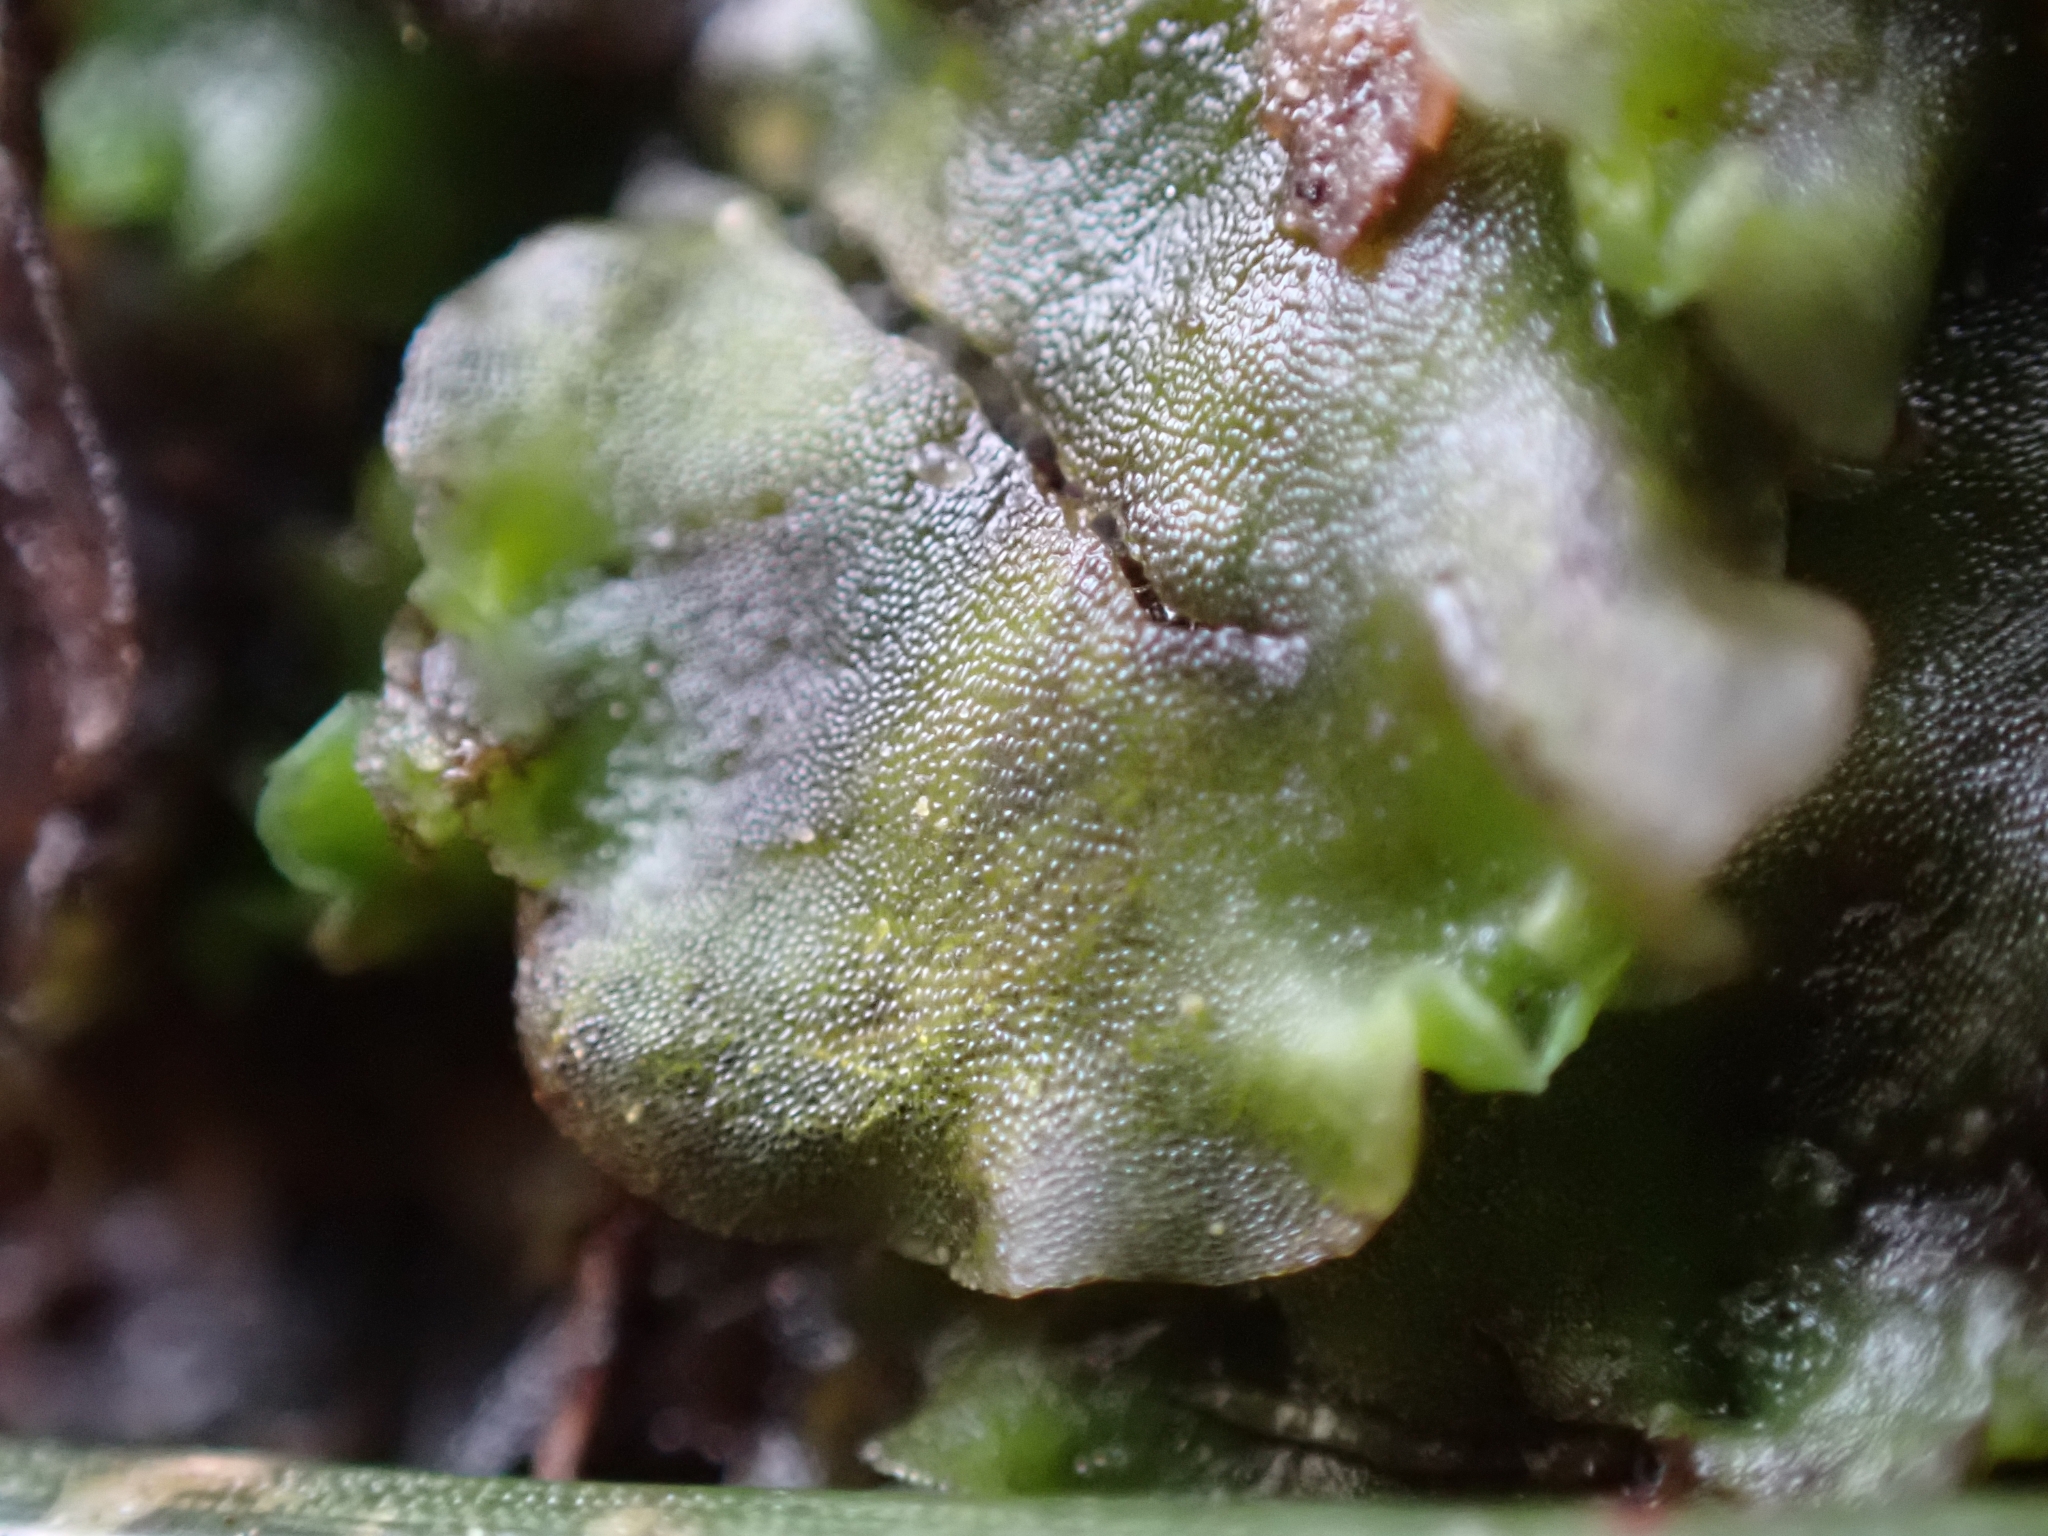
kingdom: Plantae
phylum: Marchantiophyta
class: Jungermanniopsida
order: Pelliales
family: Pelliaceae
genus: Pellia
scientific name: Pellia epiphylla
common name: Common pellia
